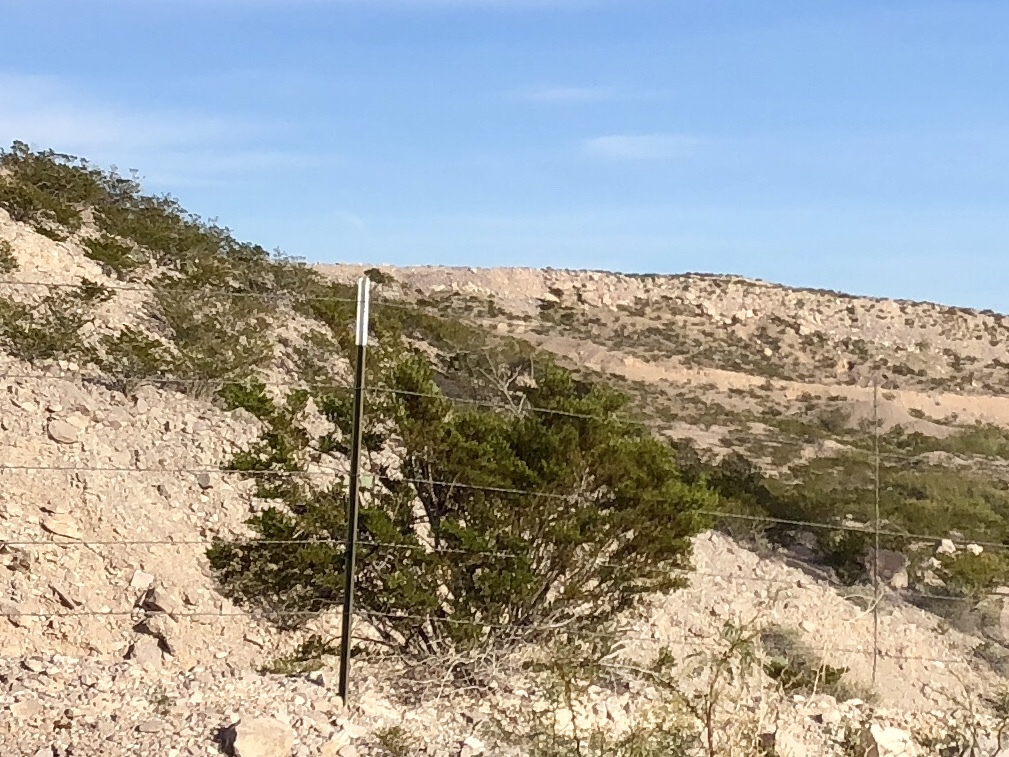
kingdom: Plantae
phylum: Tracheophyta
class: Magnoliopsida
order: Zygophyllales
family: Zygophyllaceae
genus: Larrea
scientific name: Larrea tridentata
